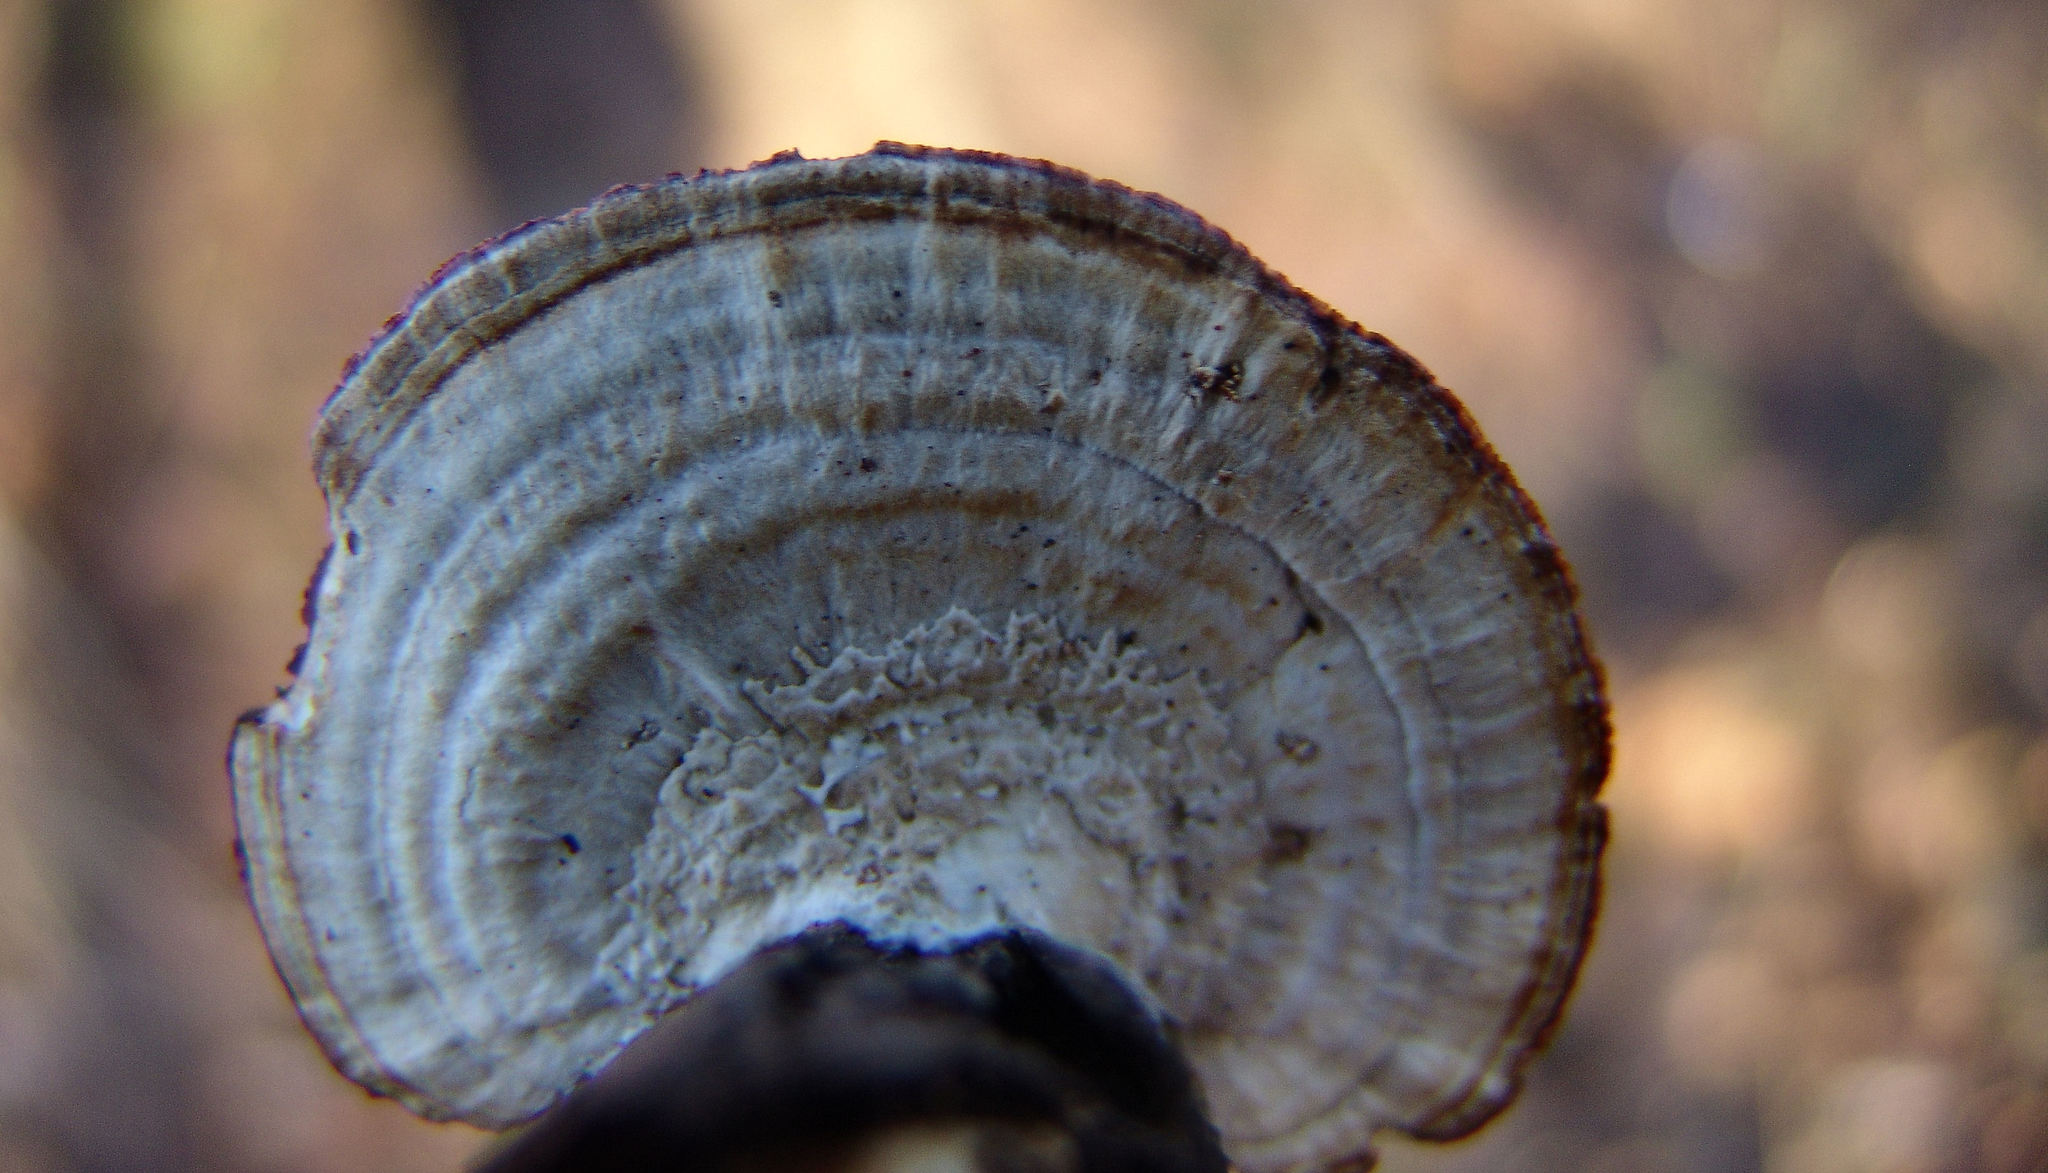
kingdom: Fungi
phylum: Basidiomycota
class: Agaricomycetes
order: Polyporales
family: Polyporaceae
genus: Daedaleopsis
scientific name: Daedaleopsis confragosa
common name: Blushing bracket
